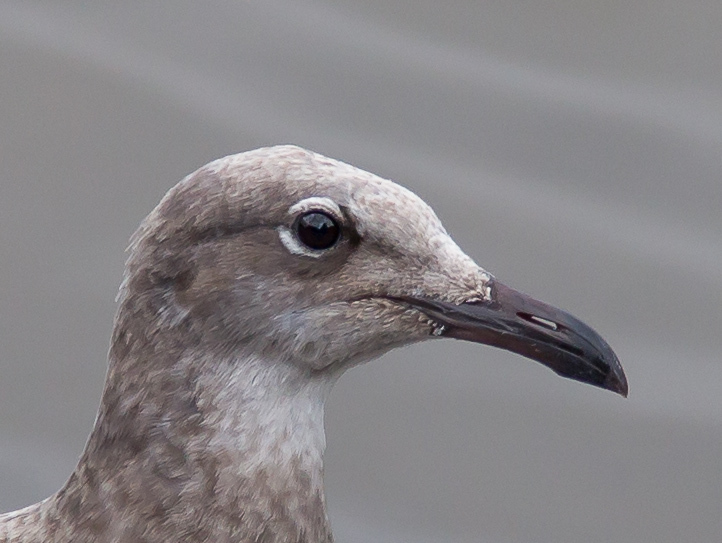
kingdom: Animalia
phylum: Chordata
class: Aves
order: Charadriiformes
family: Laridae
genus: Leucophaeus
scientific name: Leucophaeus atricilla
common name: Laughing gull
